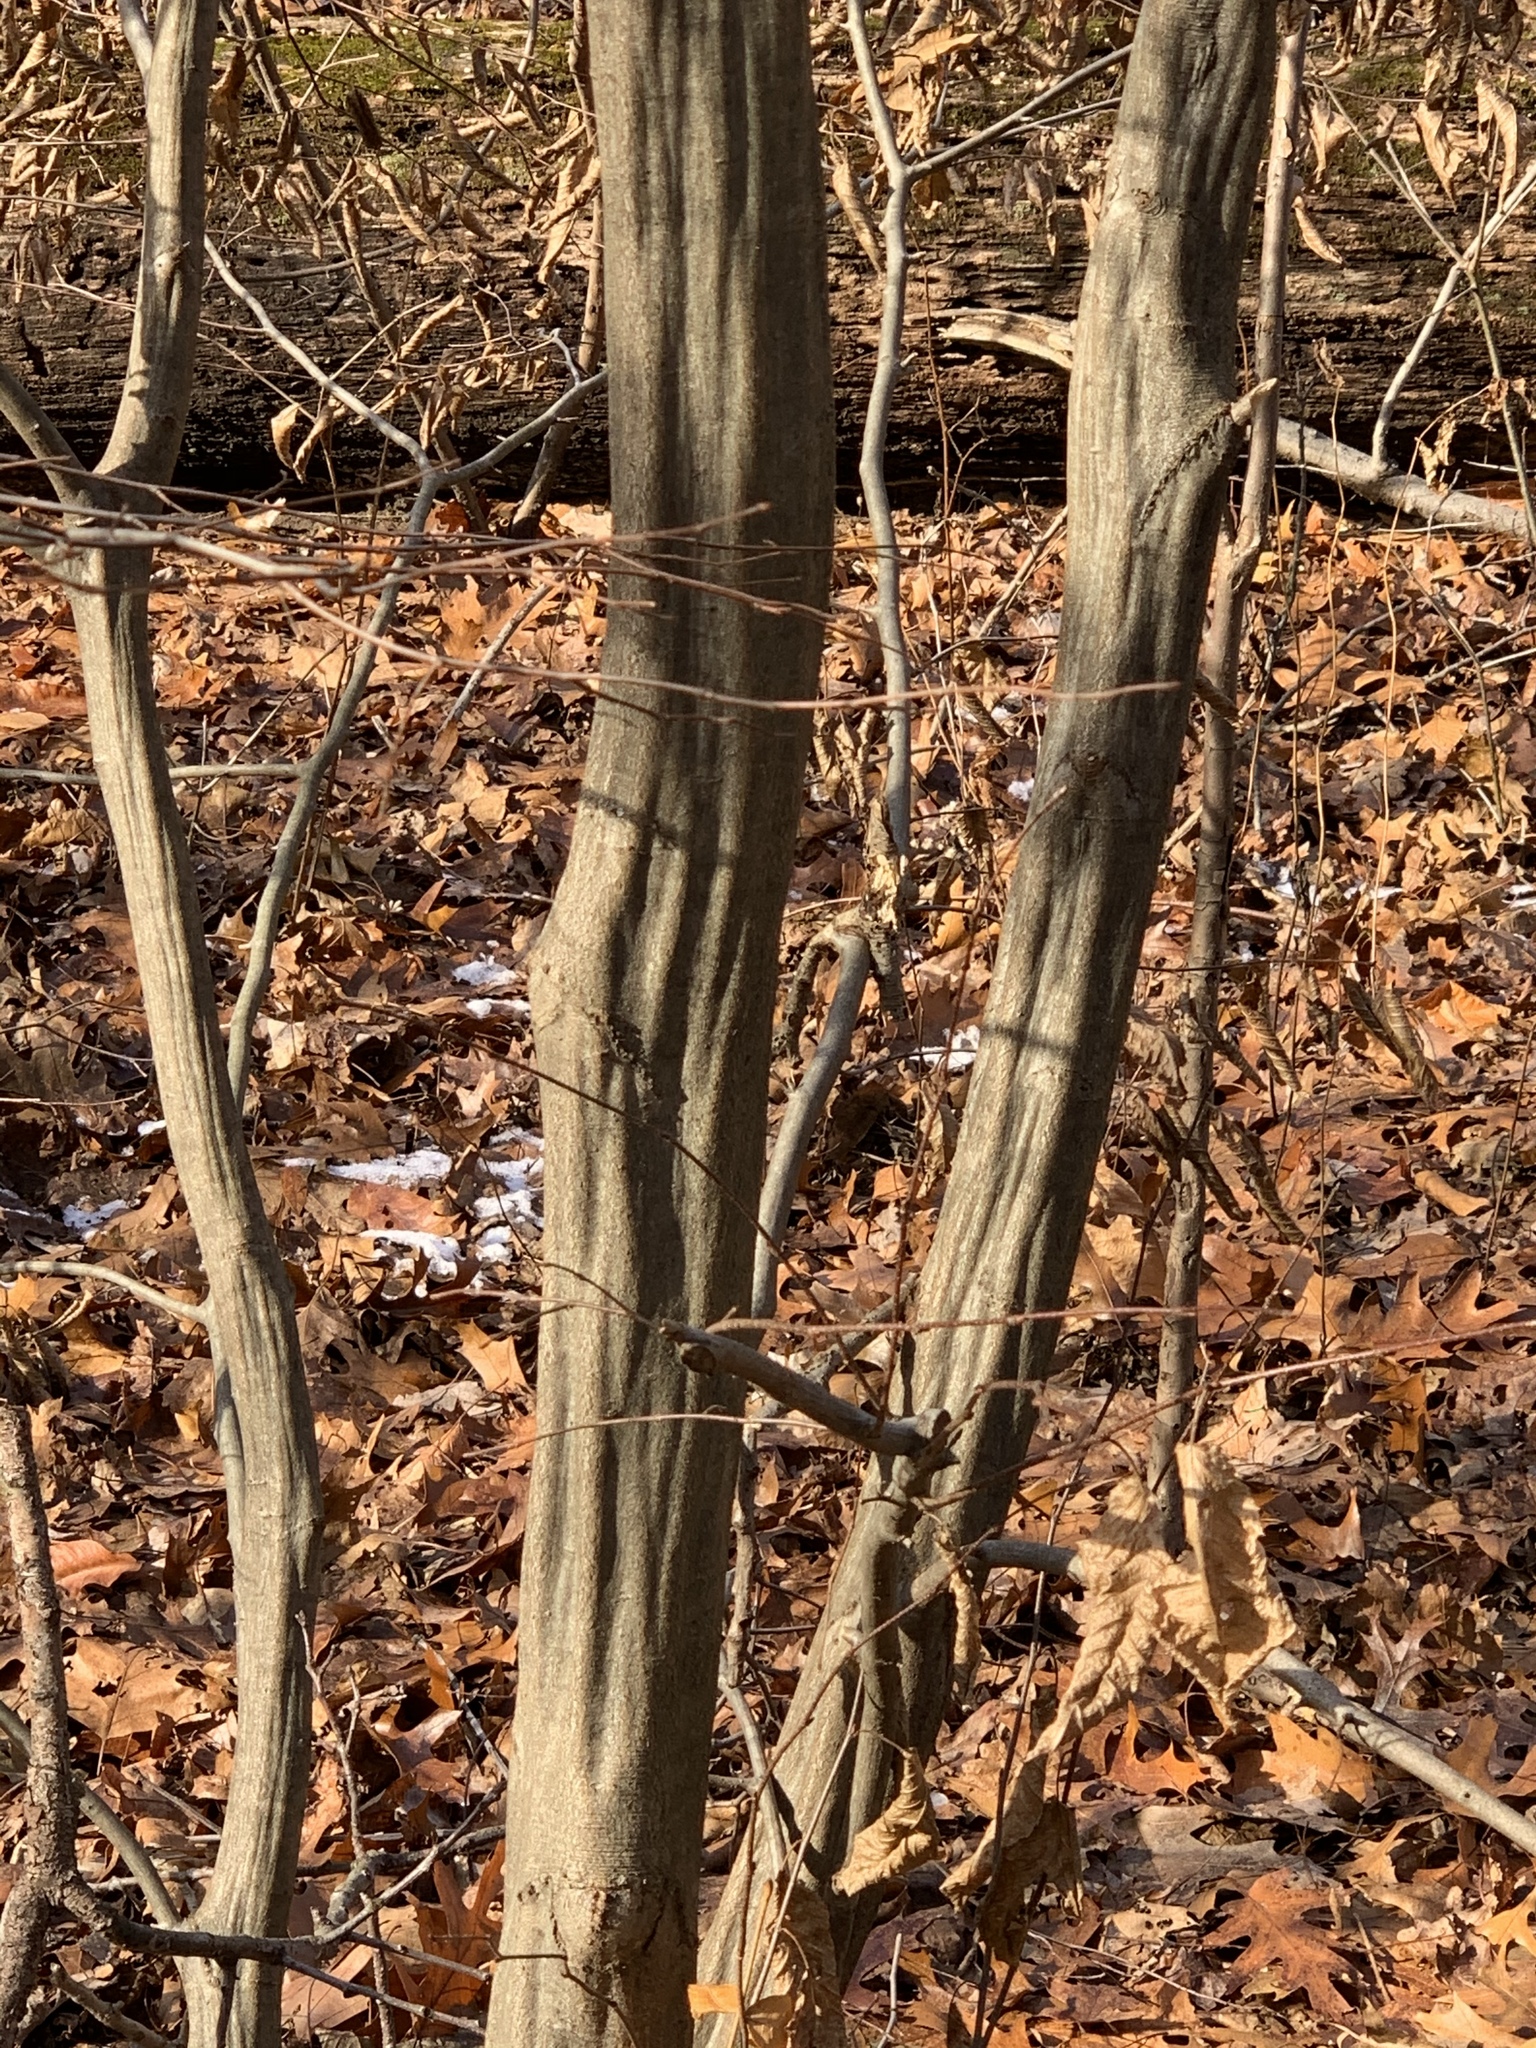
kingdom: Plantae
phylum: Tracheophyta
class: Magnoliopsida
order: Fagales
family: Betulaceae
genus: Carpinus
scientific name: Carpinus caroliniana
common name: American hornbeam
